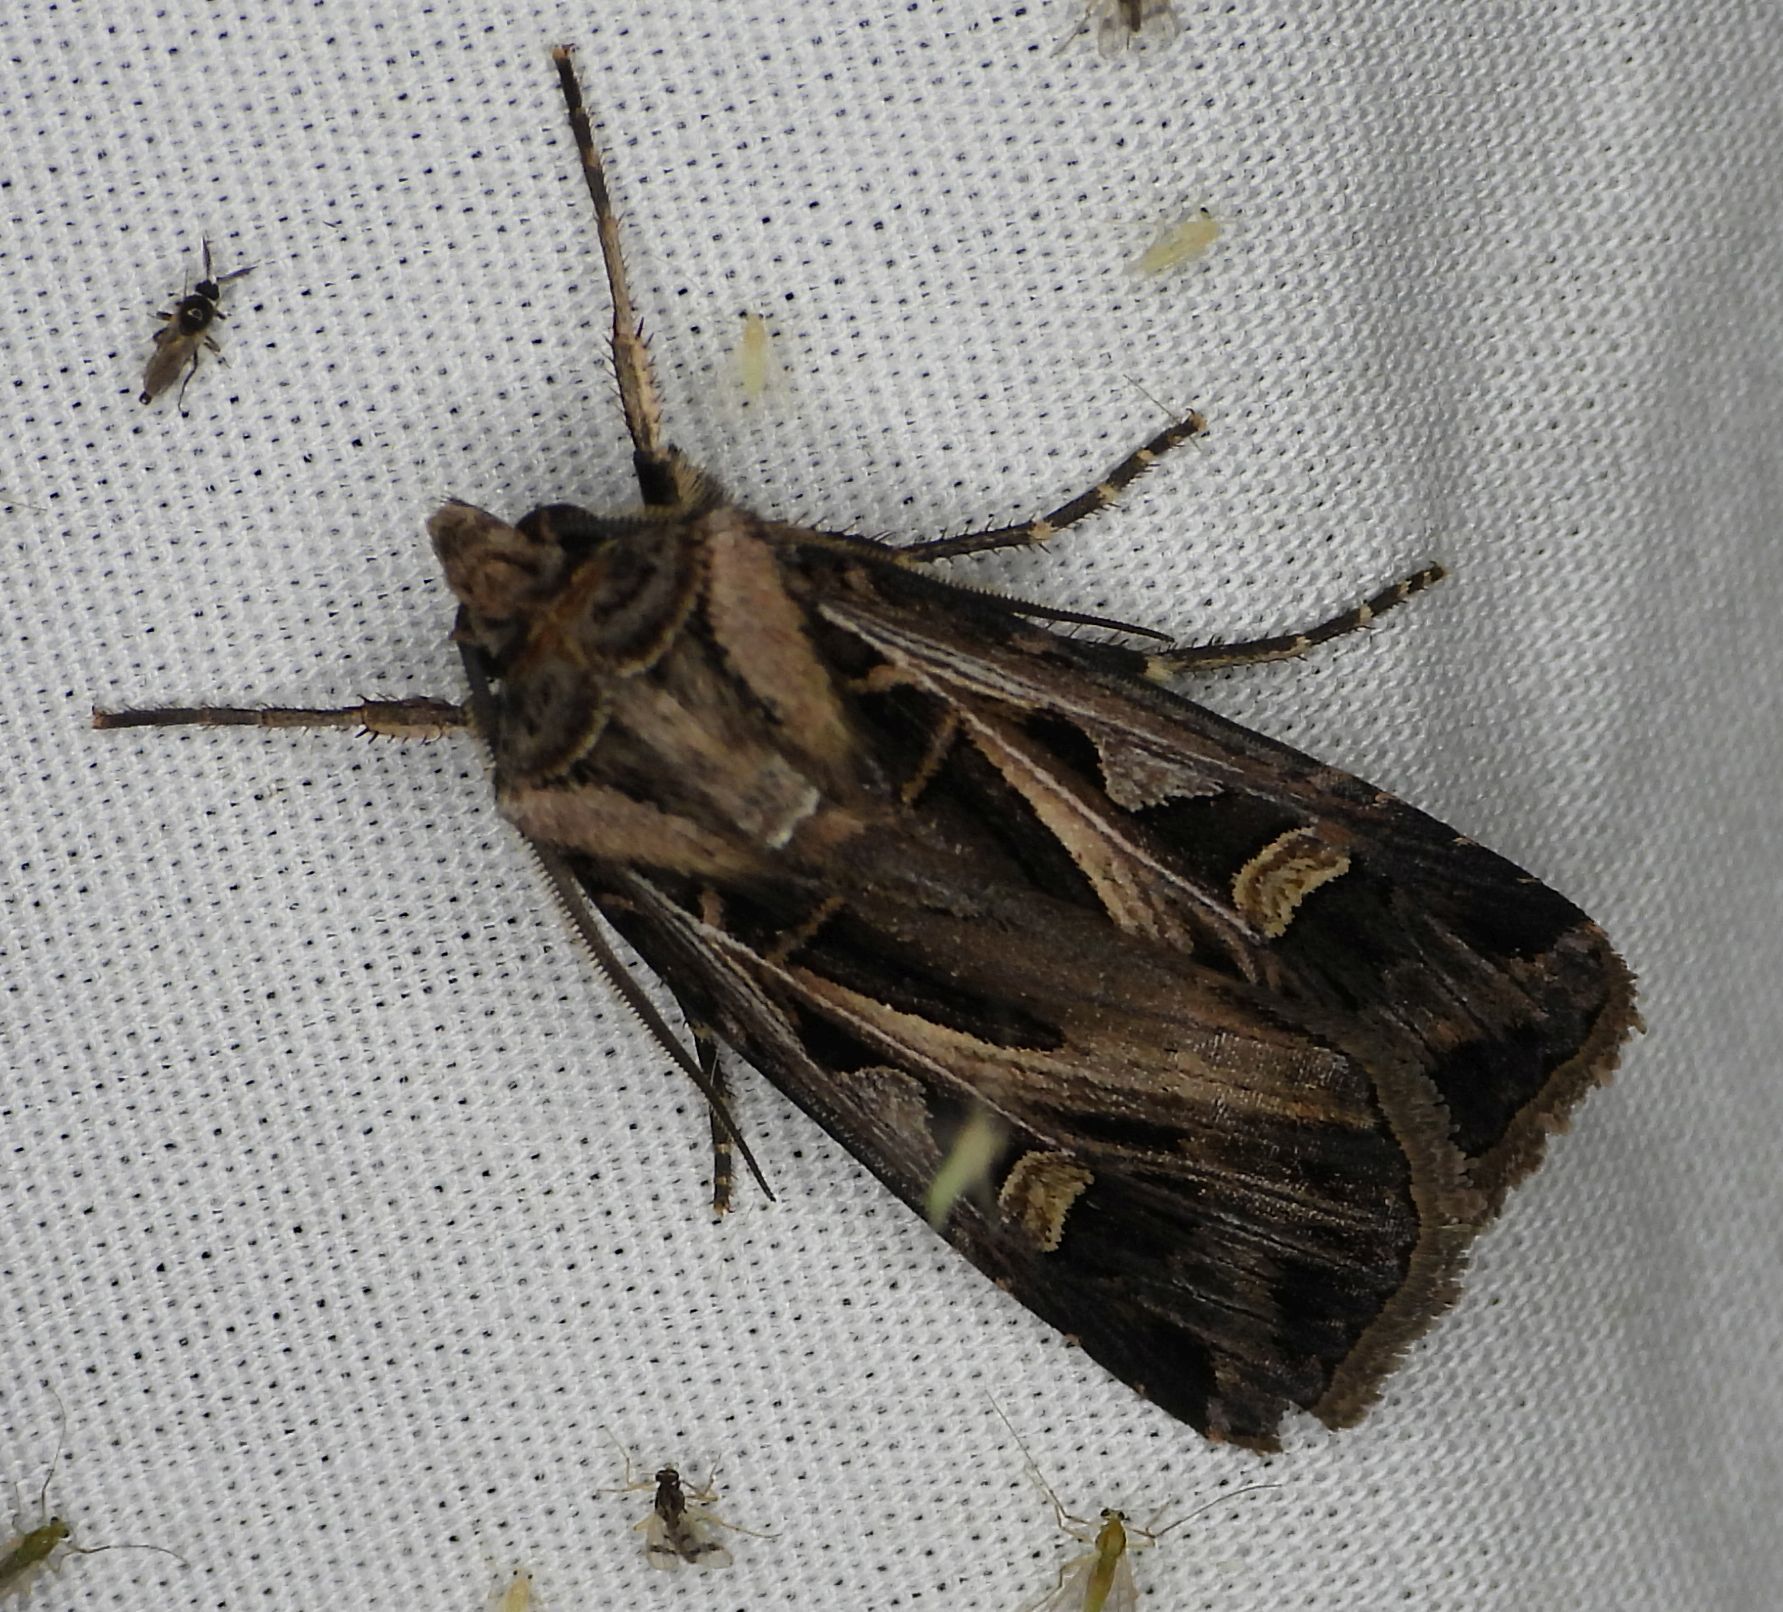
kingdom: Animalia
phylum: Arthropoda
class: Insecta
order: Lepidoptera
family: Noctuidae
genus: Feltia
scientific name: Feltia jaculifera
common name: Dingy cutworm moth
